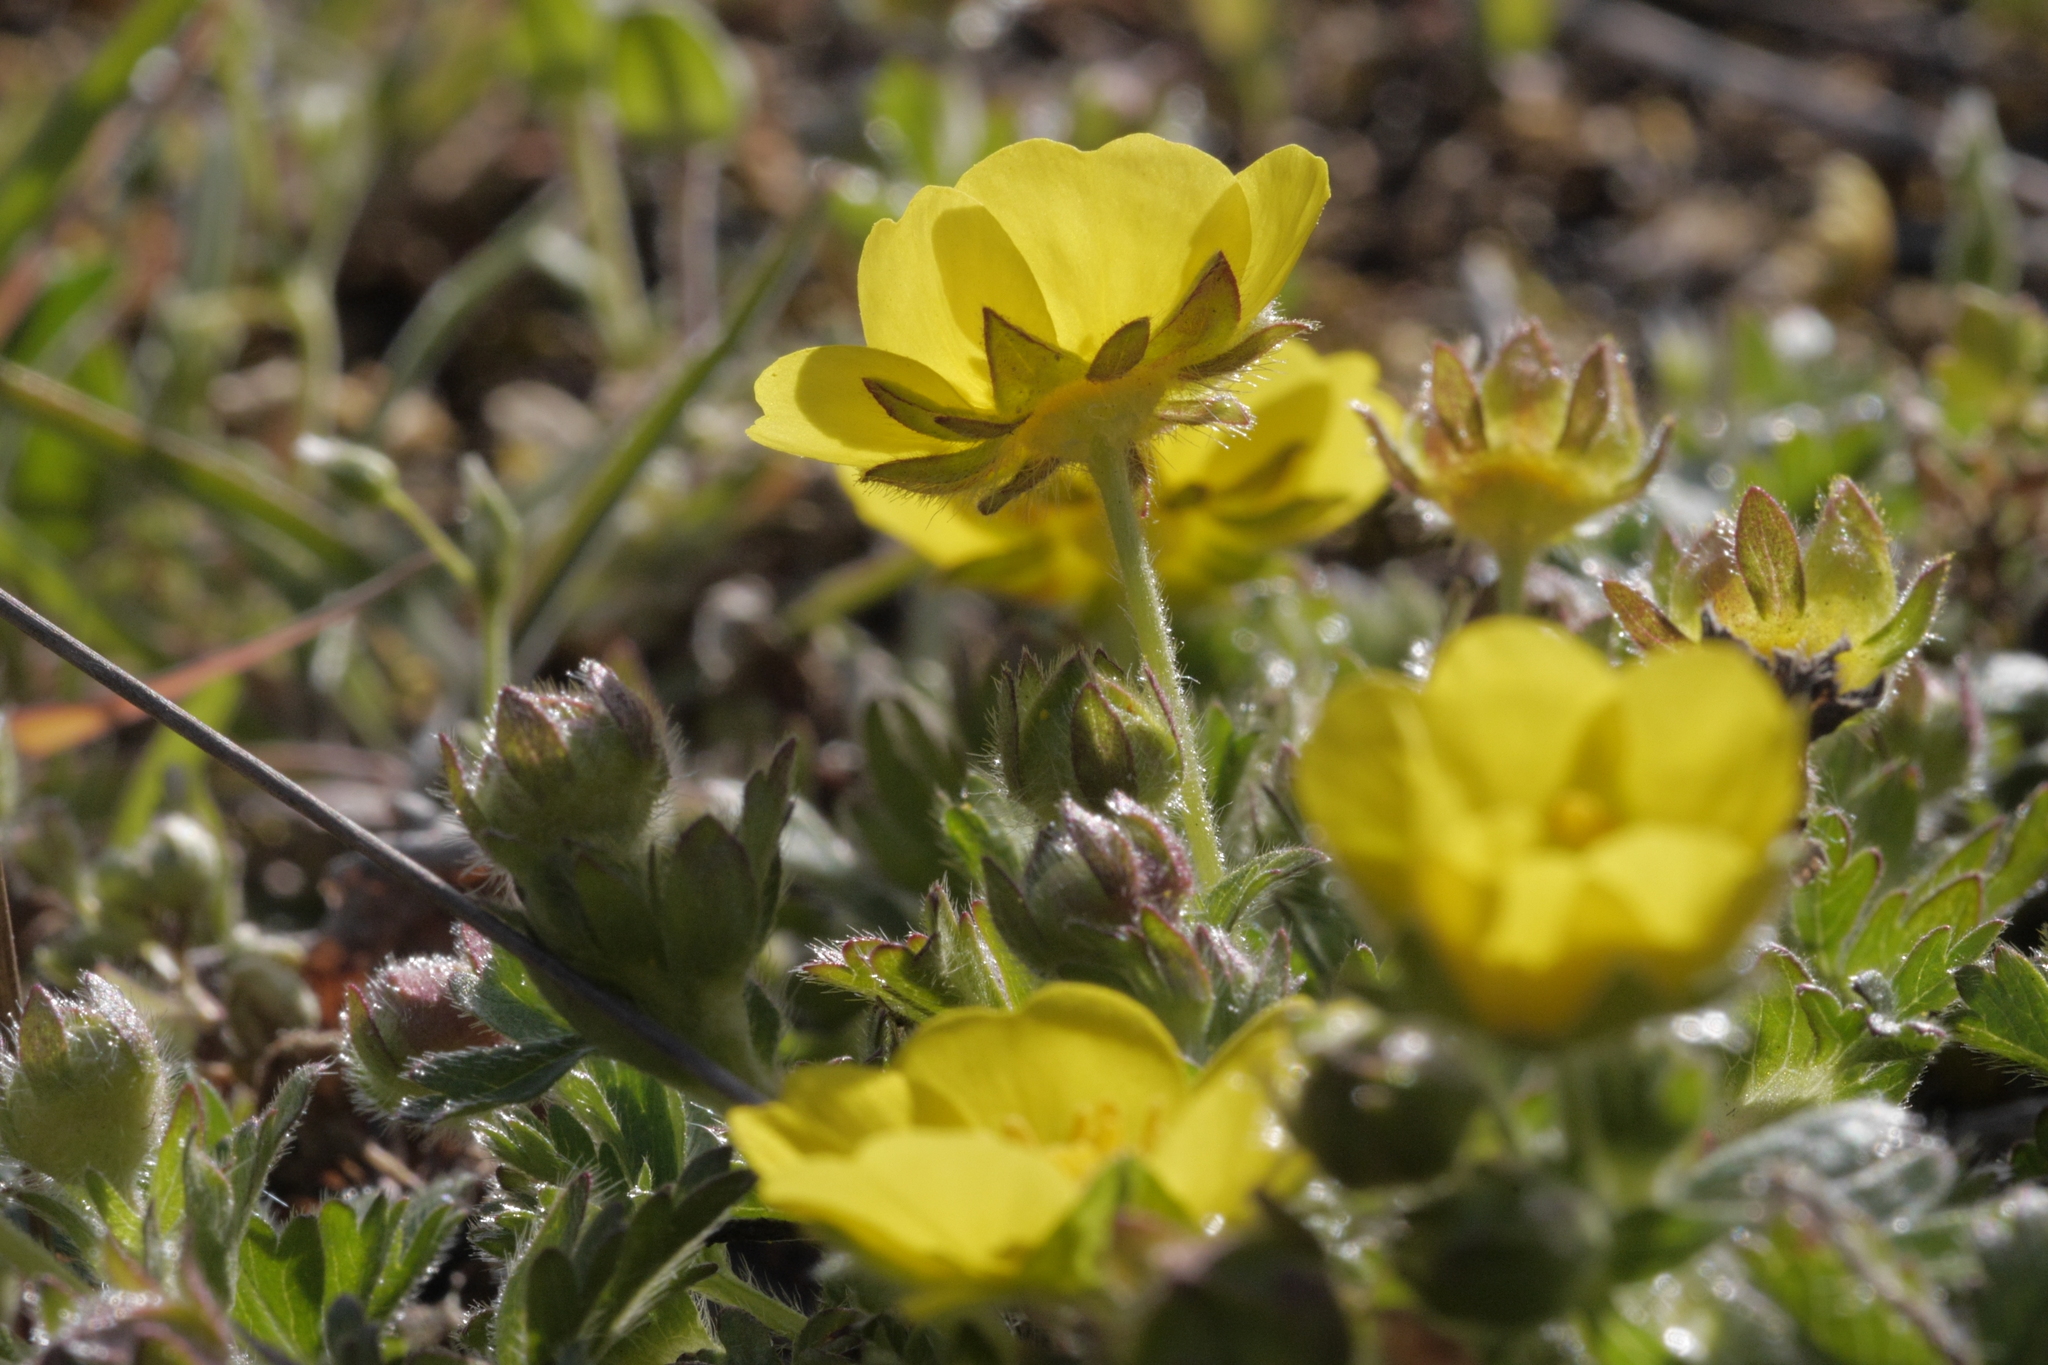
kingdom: Plantae
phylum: Tracheophyta
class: Magnoliopsida
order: Rosales
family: Rosaceae
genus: Potentilla
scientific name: Potentilla verna
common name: Spring cinquefoil
